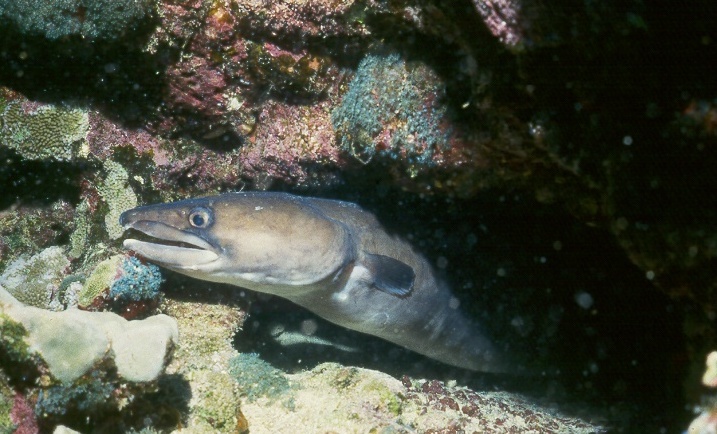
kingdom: Animalia
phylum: Chordata
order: Anguilliformes
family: Congridae
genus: Conger
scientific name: Conger marginatus
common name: Ash-colored conger eel
